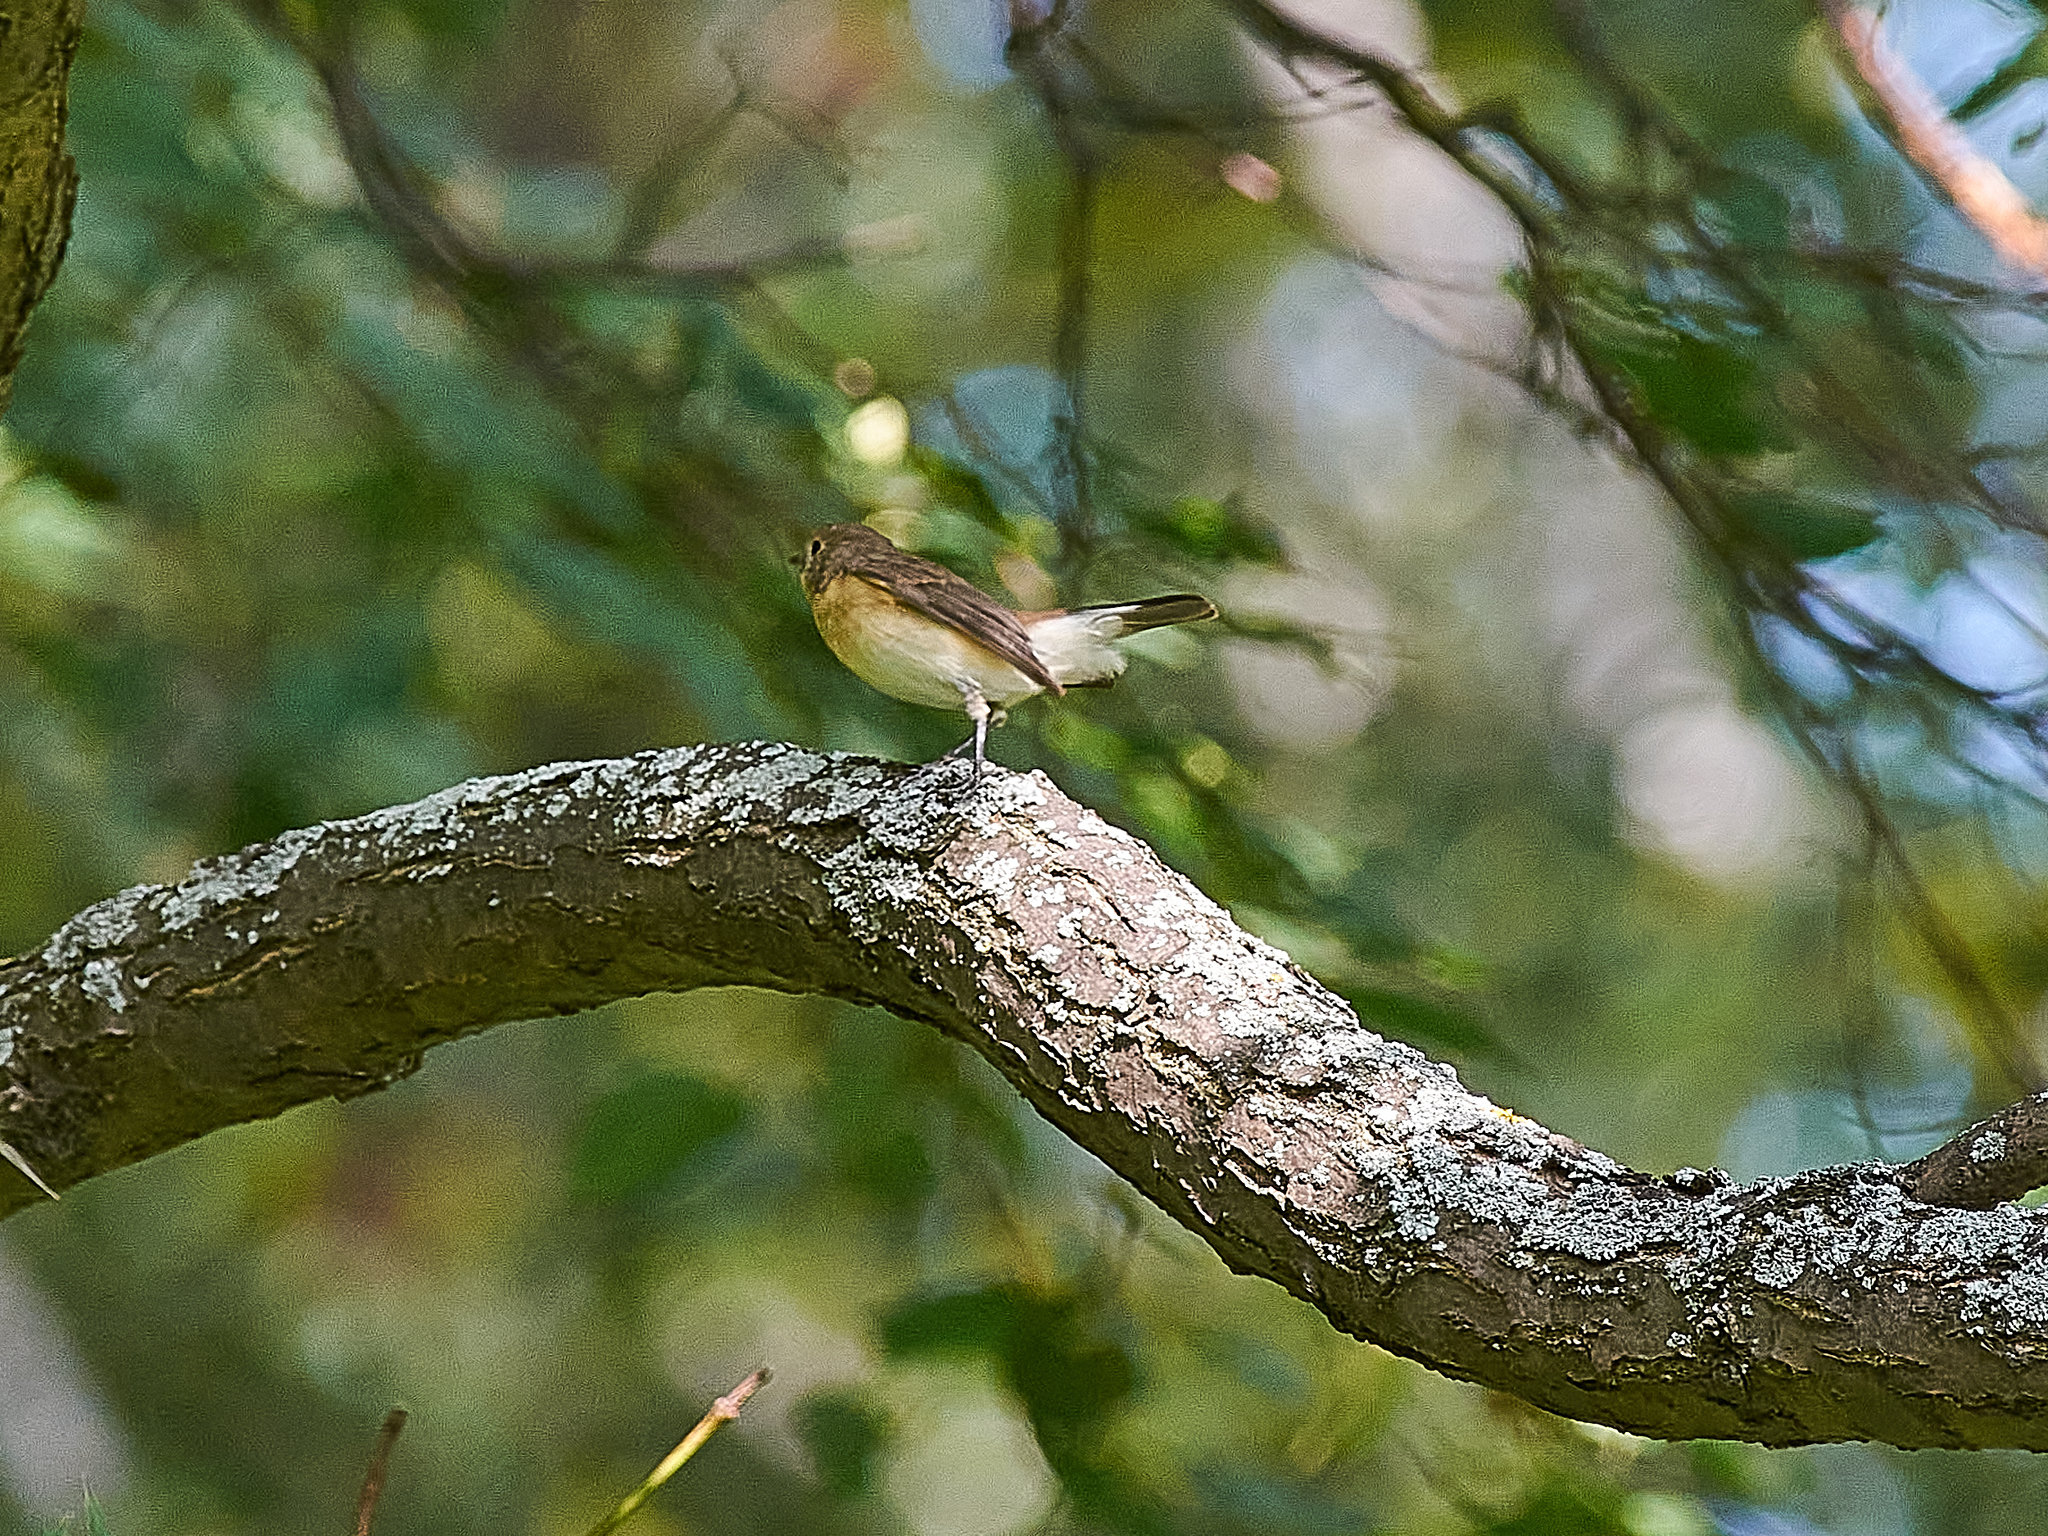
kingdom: Animalia
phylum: Chordata
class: Aves
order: Passeriformes
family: Muscicapidae
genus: Ficedula
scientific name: Ficedula parva
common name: Red-breasted flycatcher
